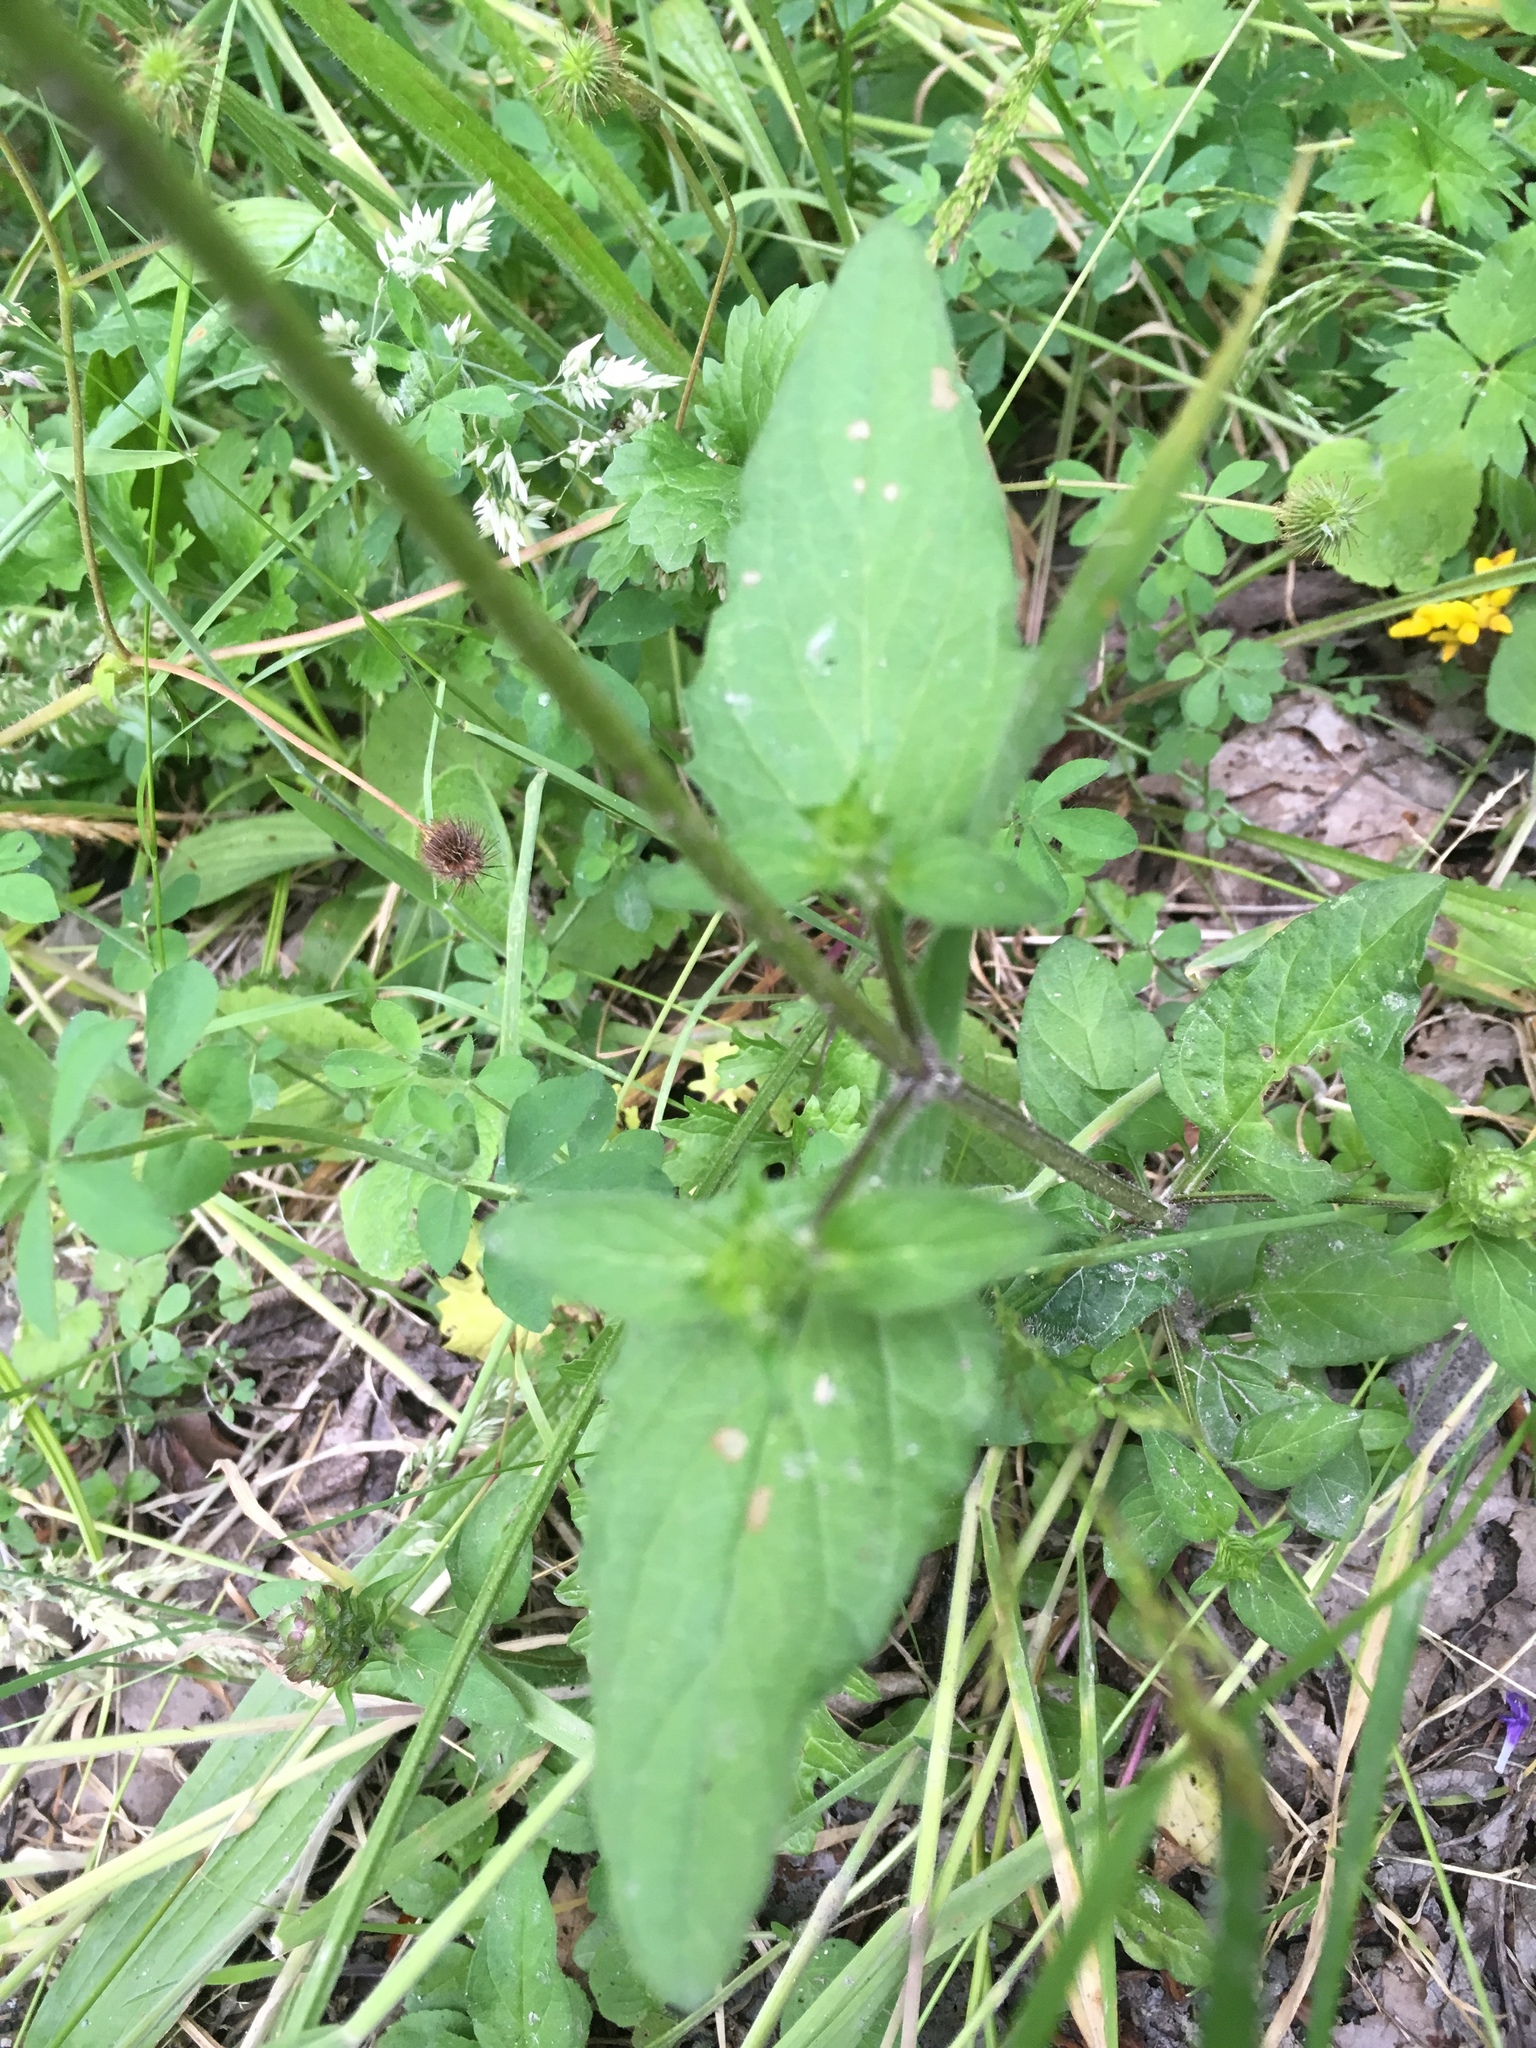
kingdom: Plantae
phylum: Tracheophyta
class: Magnoliopsida
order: Lamiales
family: Lamiaceae
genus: Prunella
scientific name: Prunella vulgaris
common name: Heal-all
